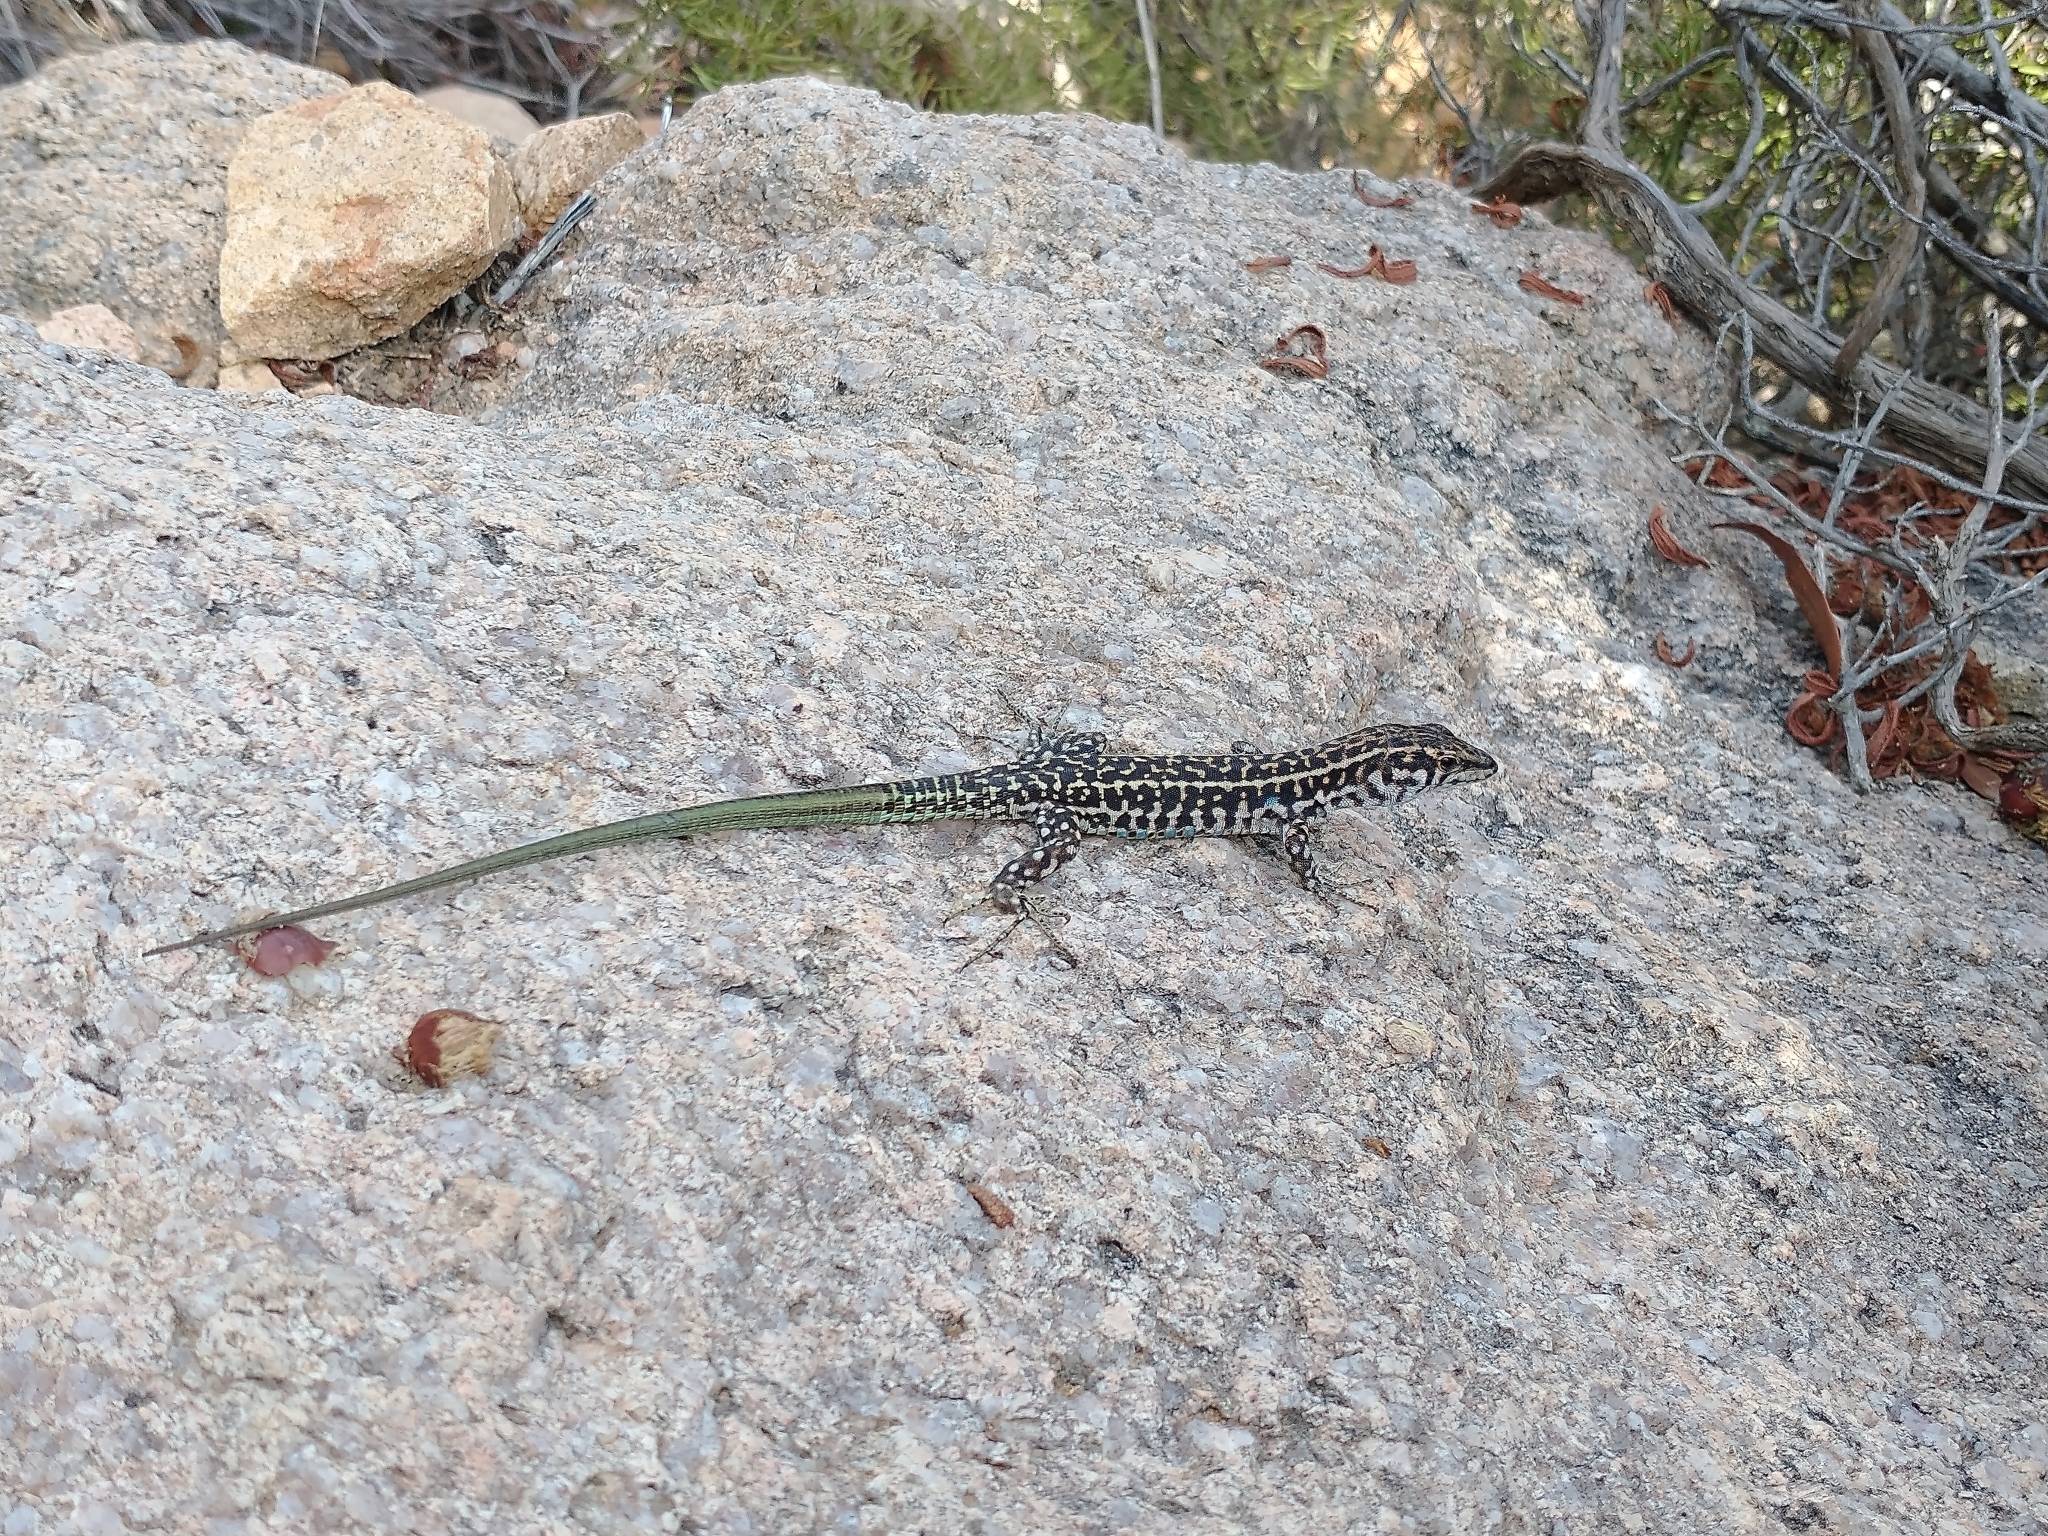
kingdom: Animalia
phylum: Chordata
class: Squamata
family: Lacertidae
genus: Podarcis
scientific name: Podarcis tiliguerta
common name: Tyrrhenian wall lizard
